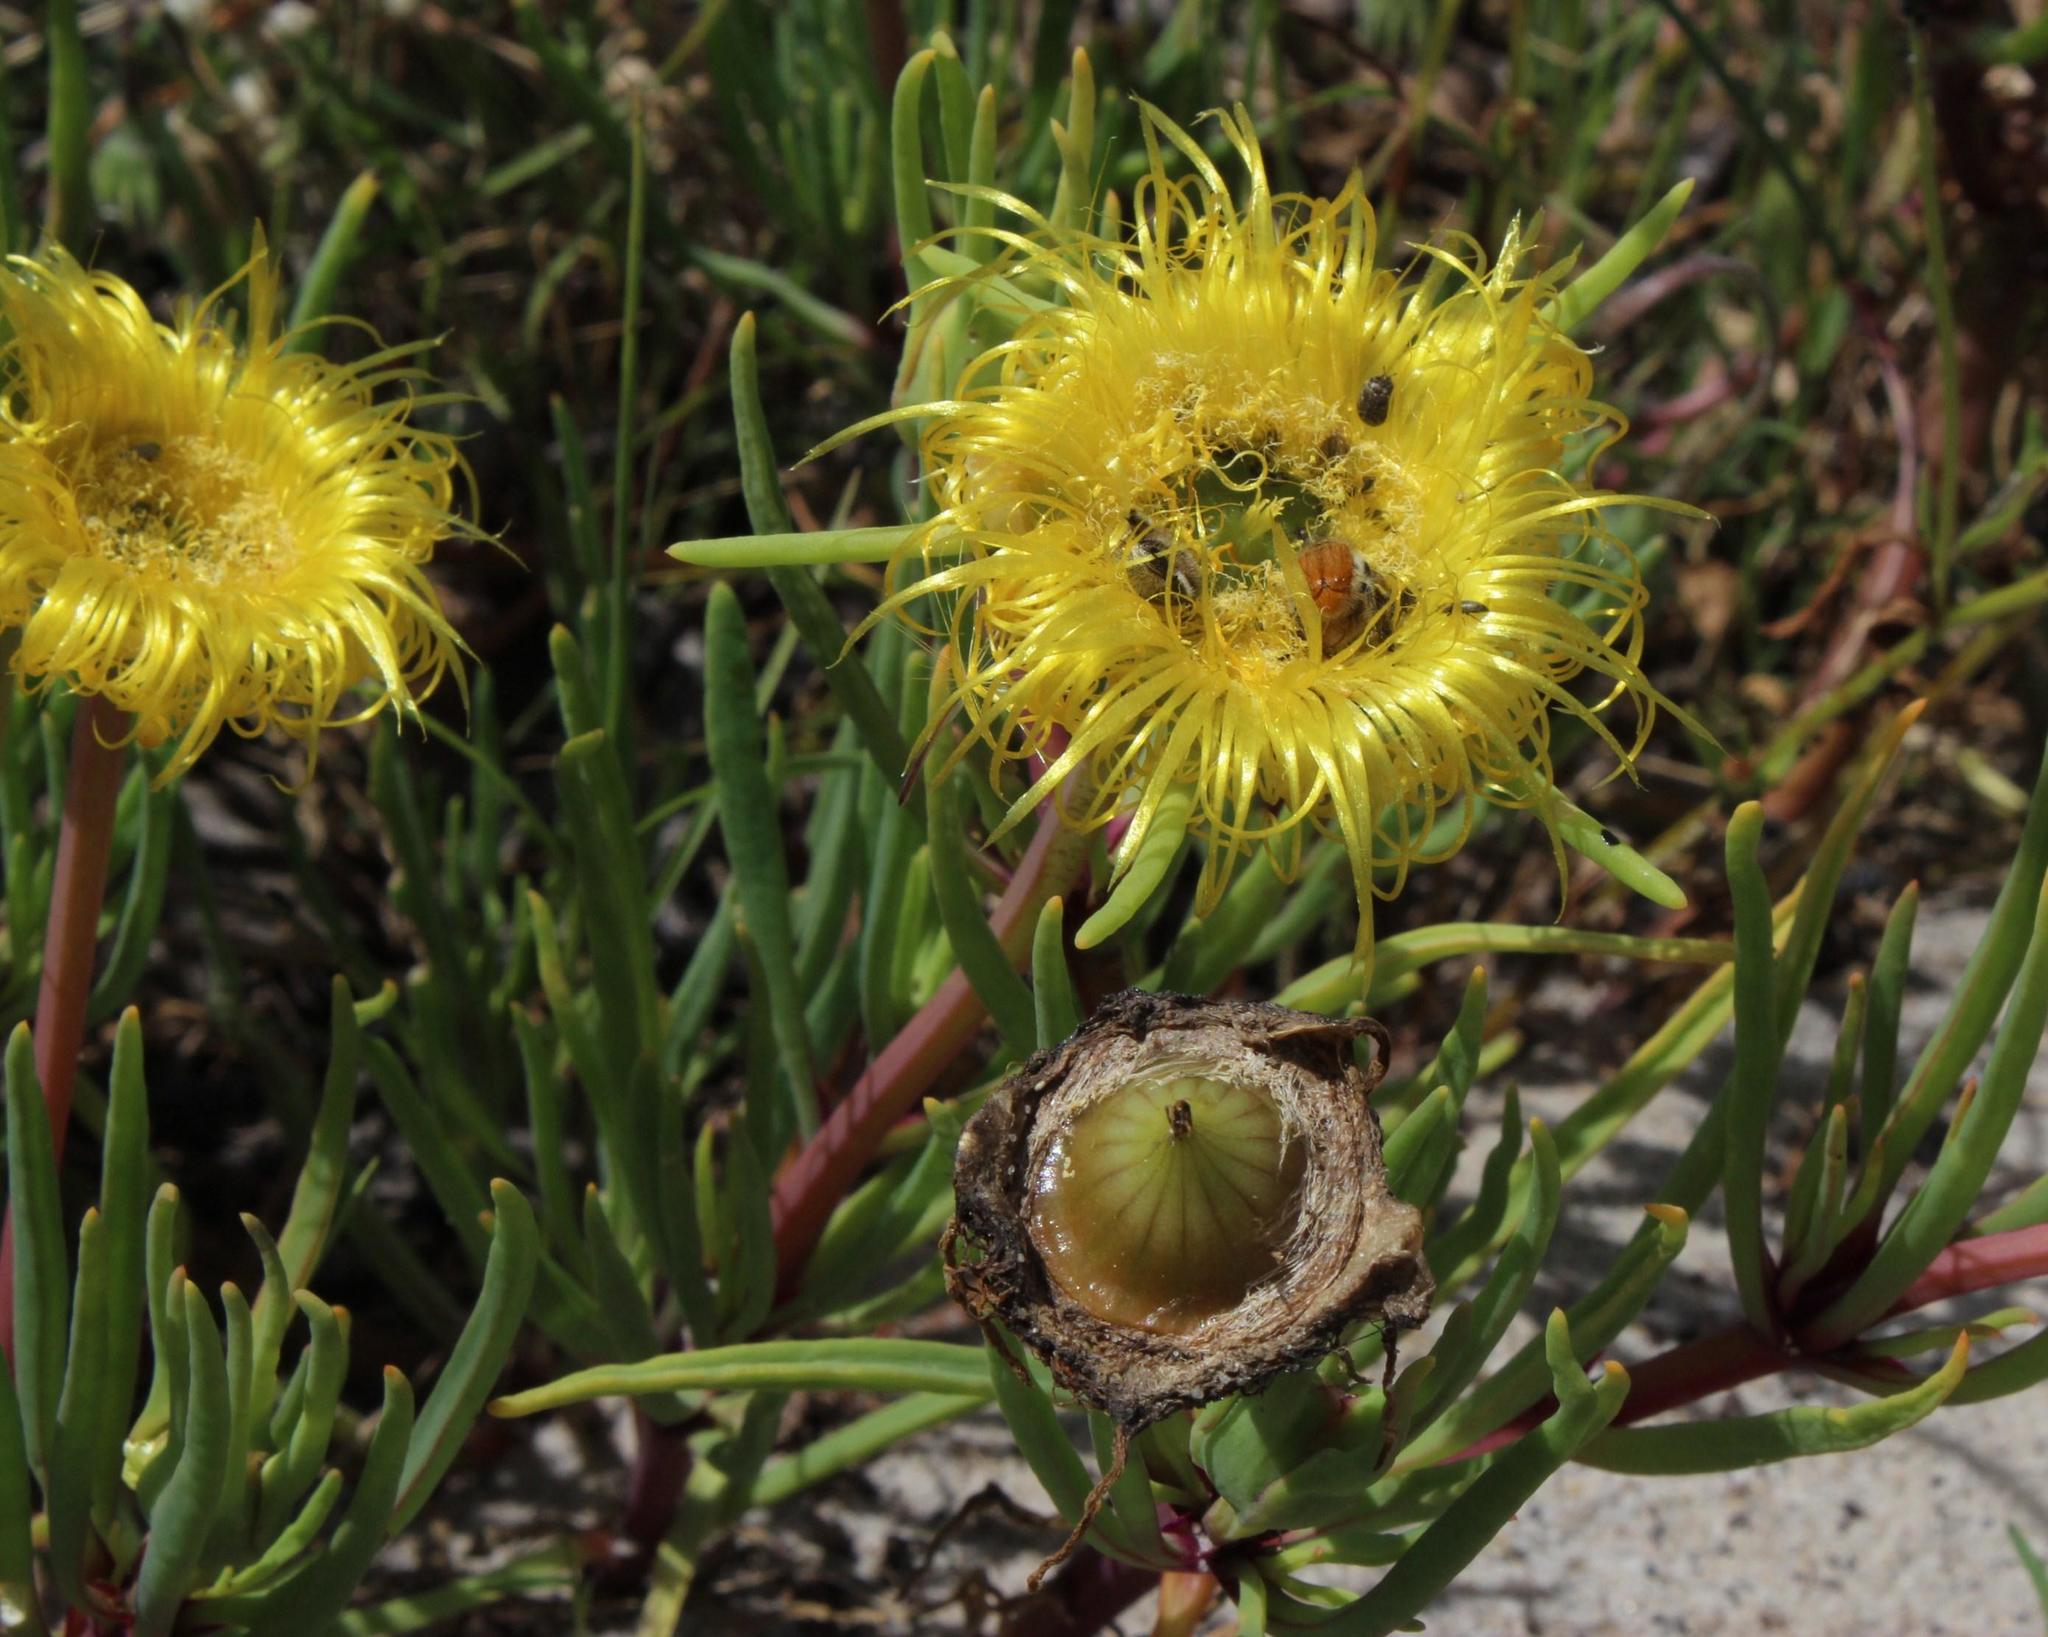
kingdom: Plantae
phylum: Tracheophyta
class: Magnoliopsida
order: Caryophyllales
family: Aizoaceae
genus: Conicosia
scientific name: Conicosia pugioniformis
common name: Narrow-leaved iceplant
